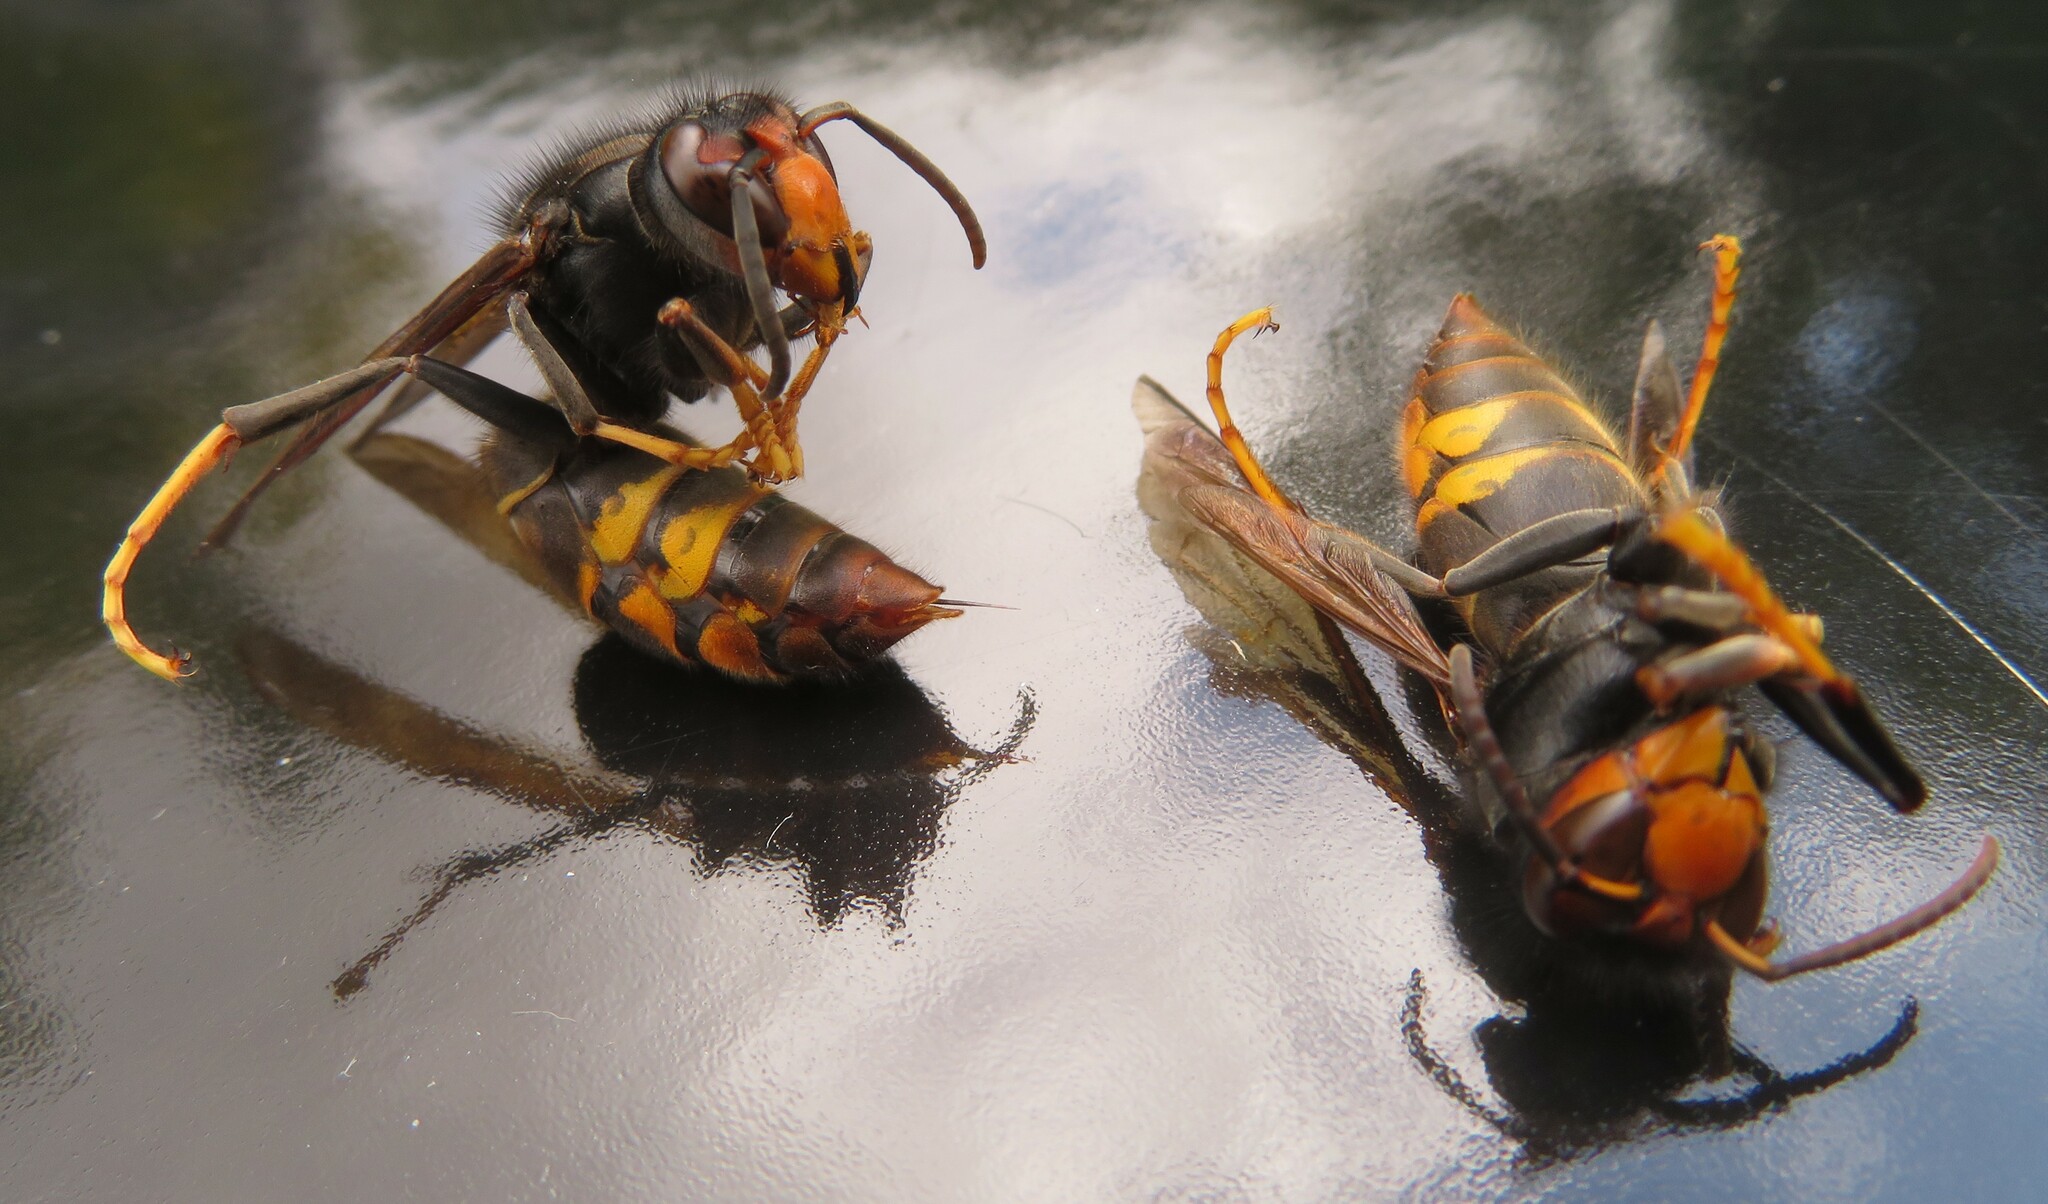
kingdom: Animalia
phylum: Arthropoda
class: Insecta
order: Hymenoptera
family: Vespidae
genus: Vespa
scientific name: Vespa velutina
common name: Asian hornet
